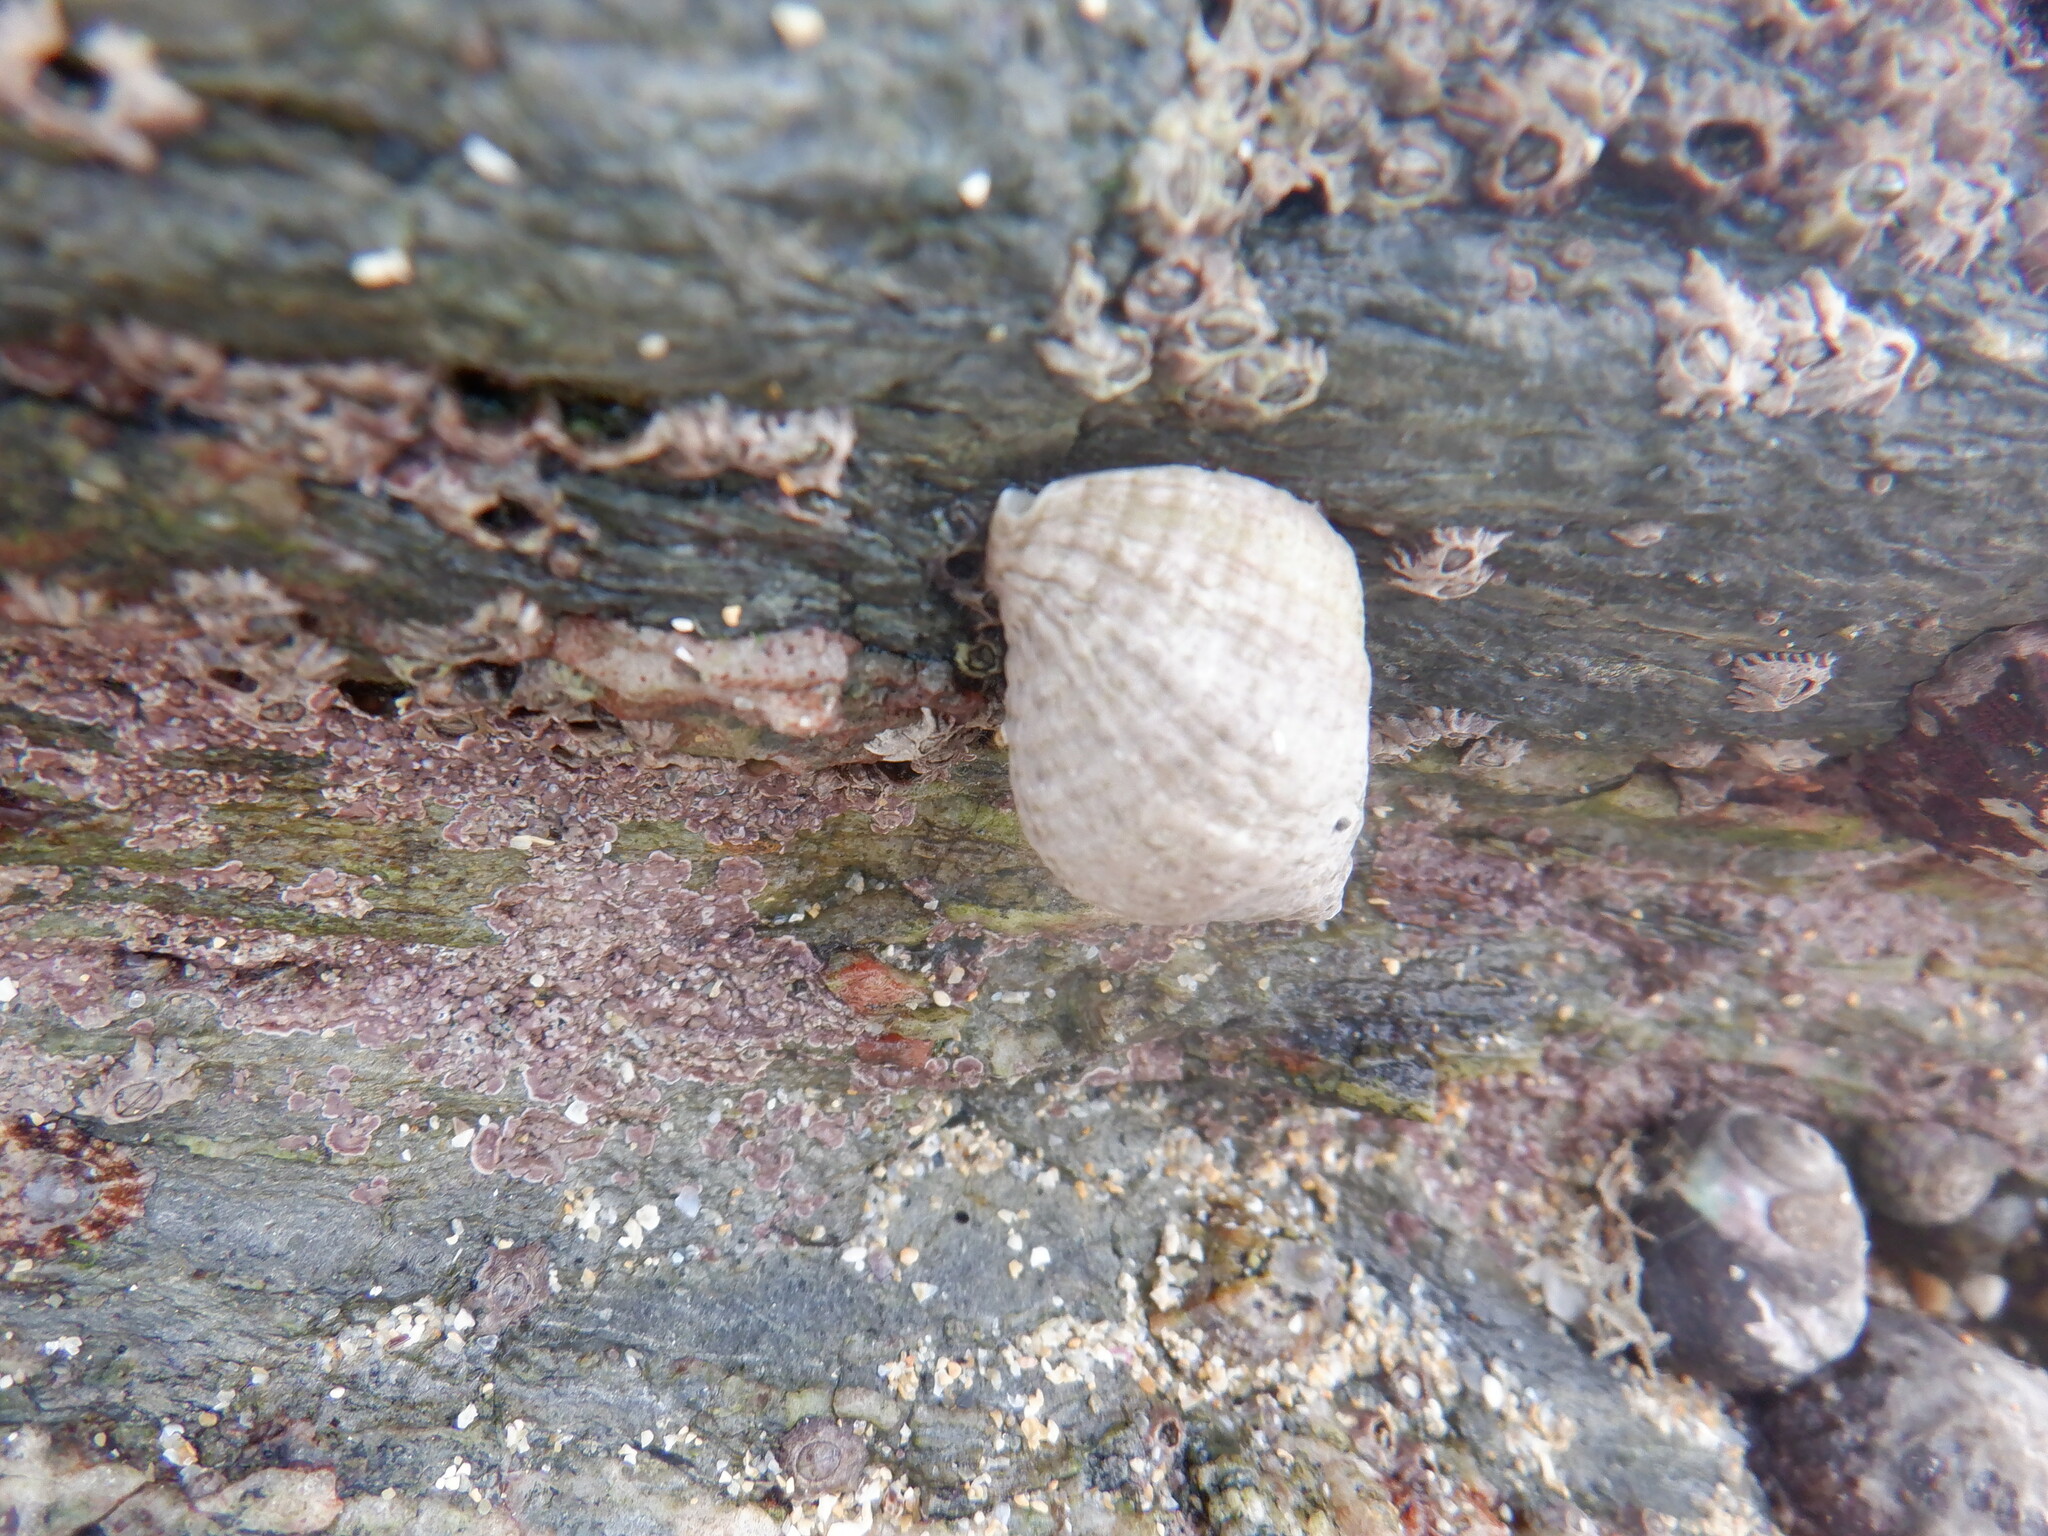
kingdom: Animalia
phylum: Mollusca
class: Gastropoda
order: Neogastropoda
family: Muricidae
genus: Nucella
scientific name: Nucella lapillus
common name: Dog whelk
